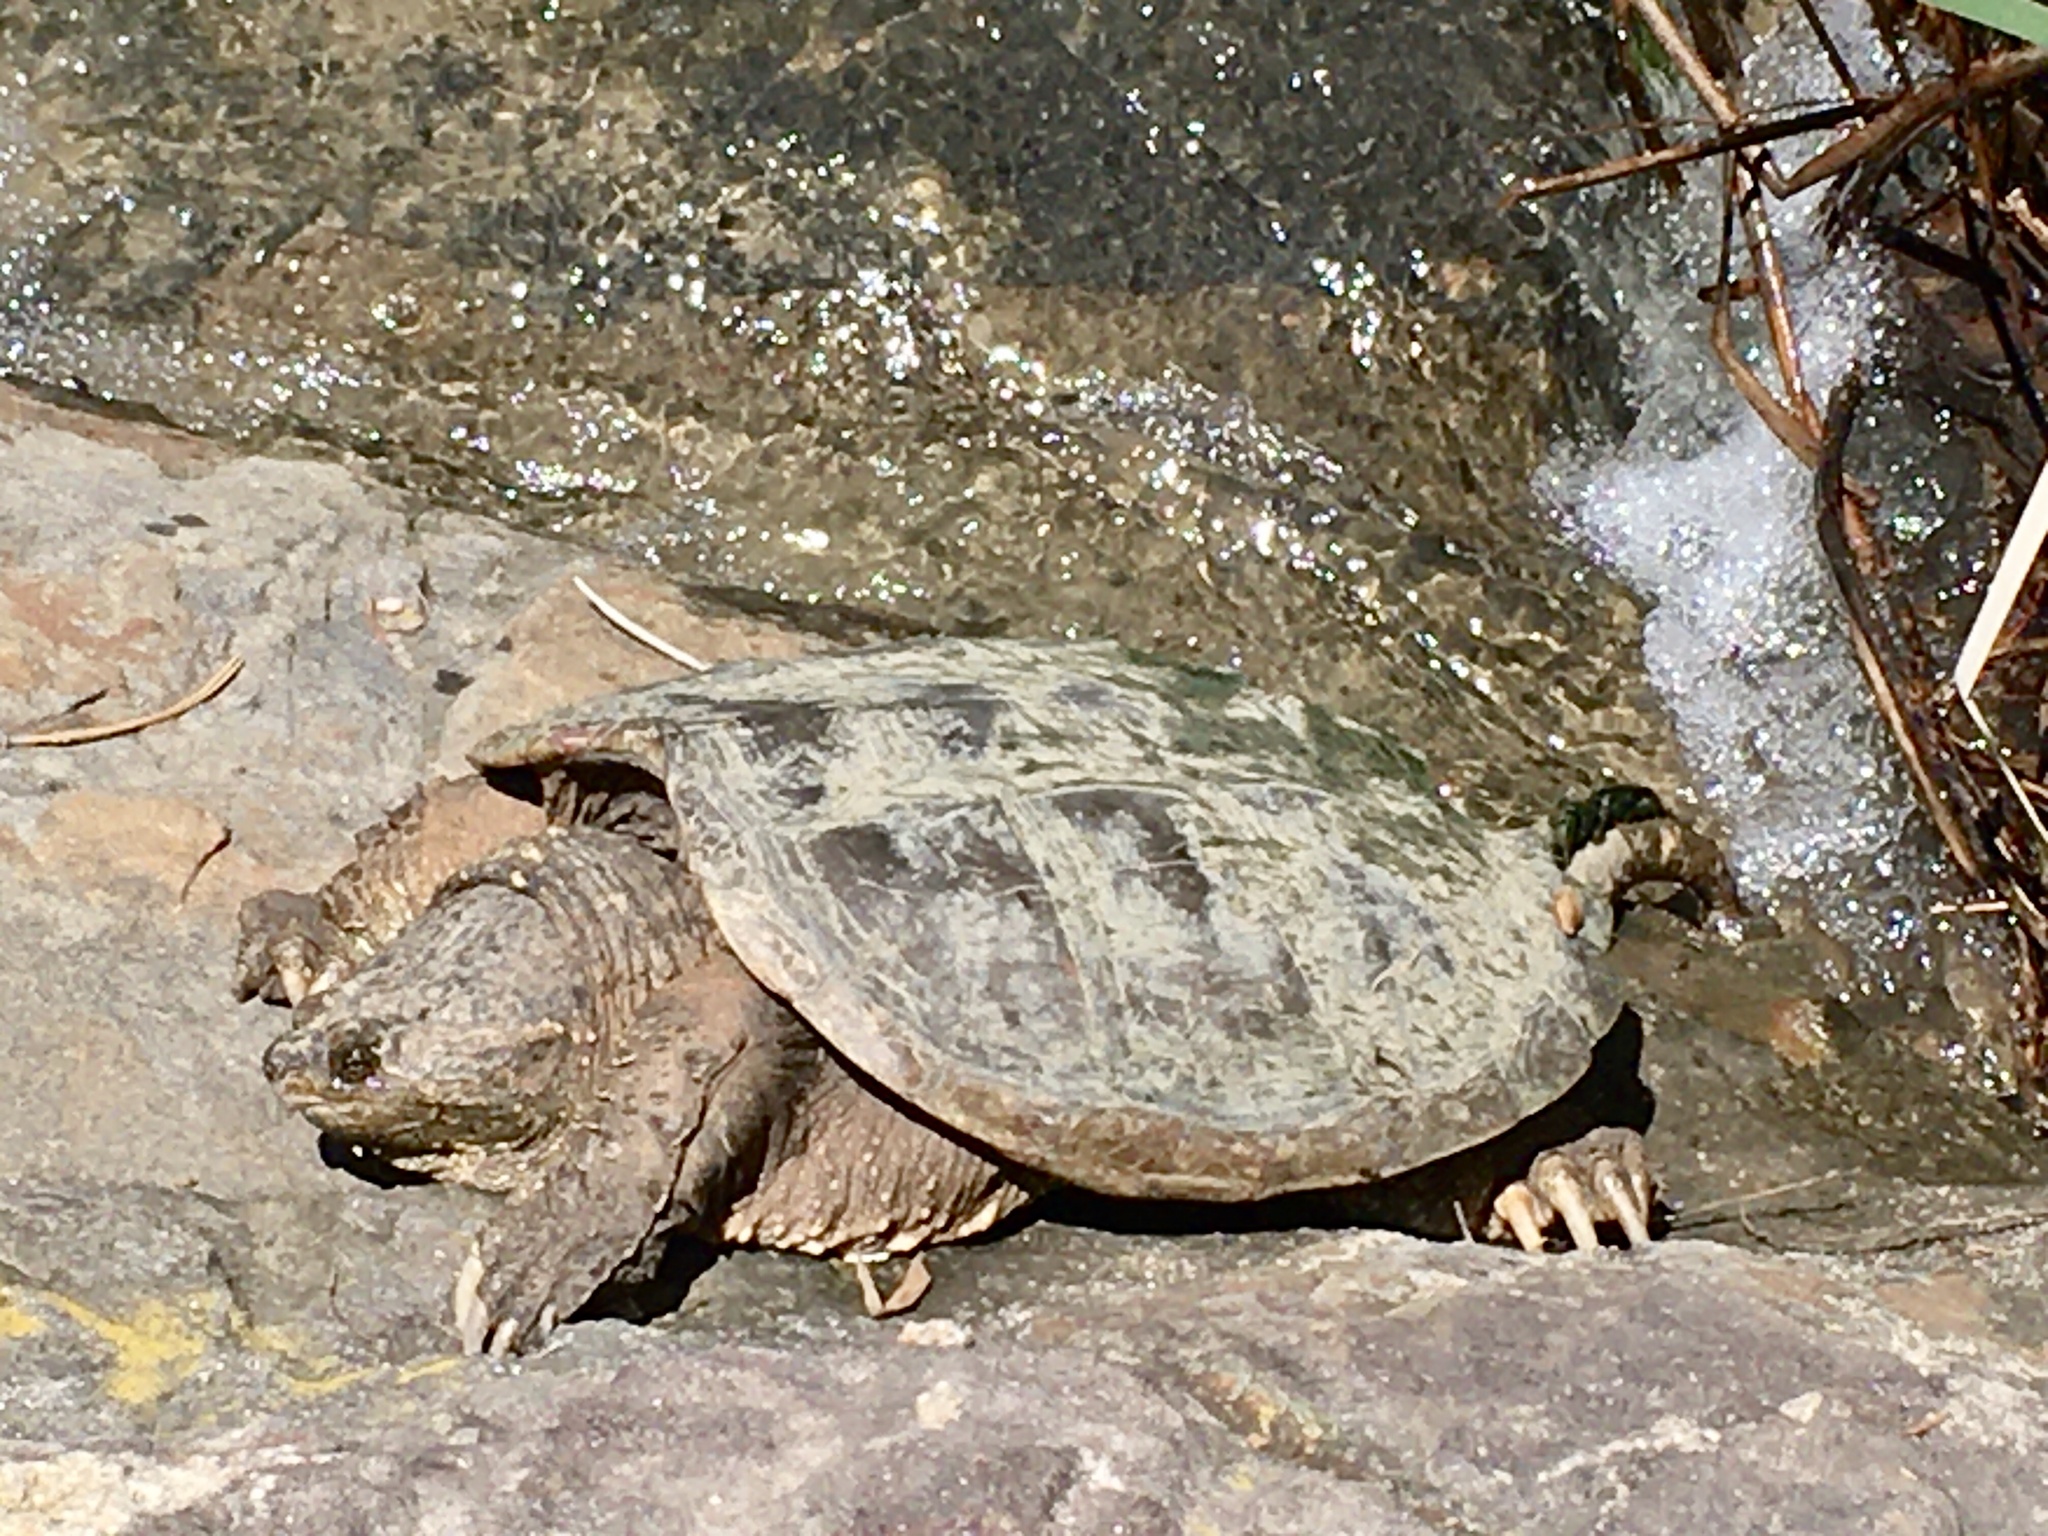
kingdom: Animalia
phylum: Chordata
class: Testudines
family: Chelydridae
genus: Chelydra
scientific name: Chelydra serpentina
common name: Common snapping turtle
